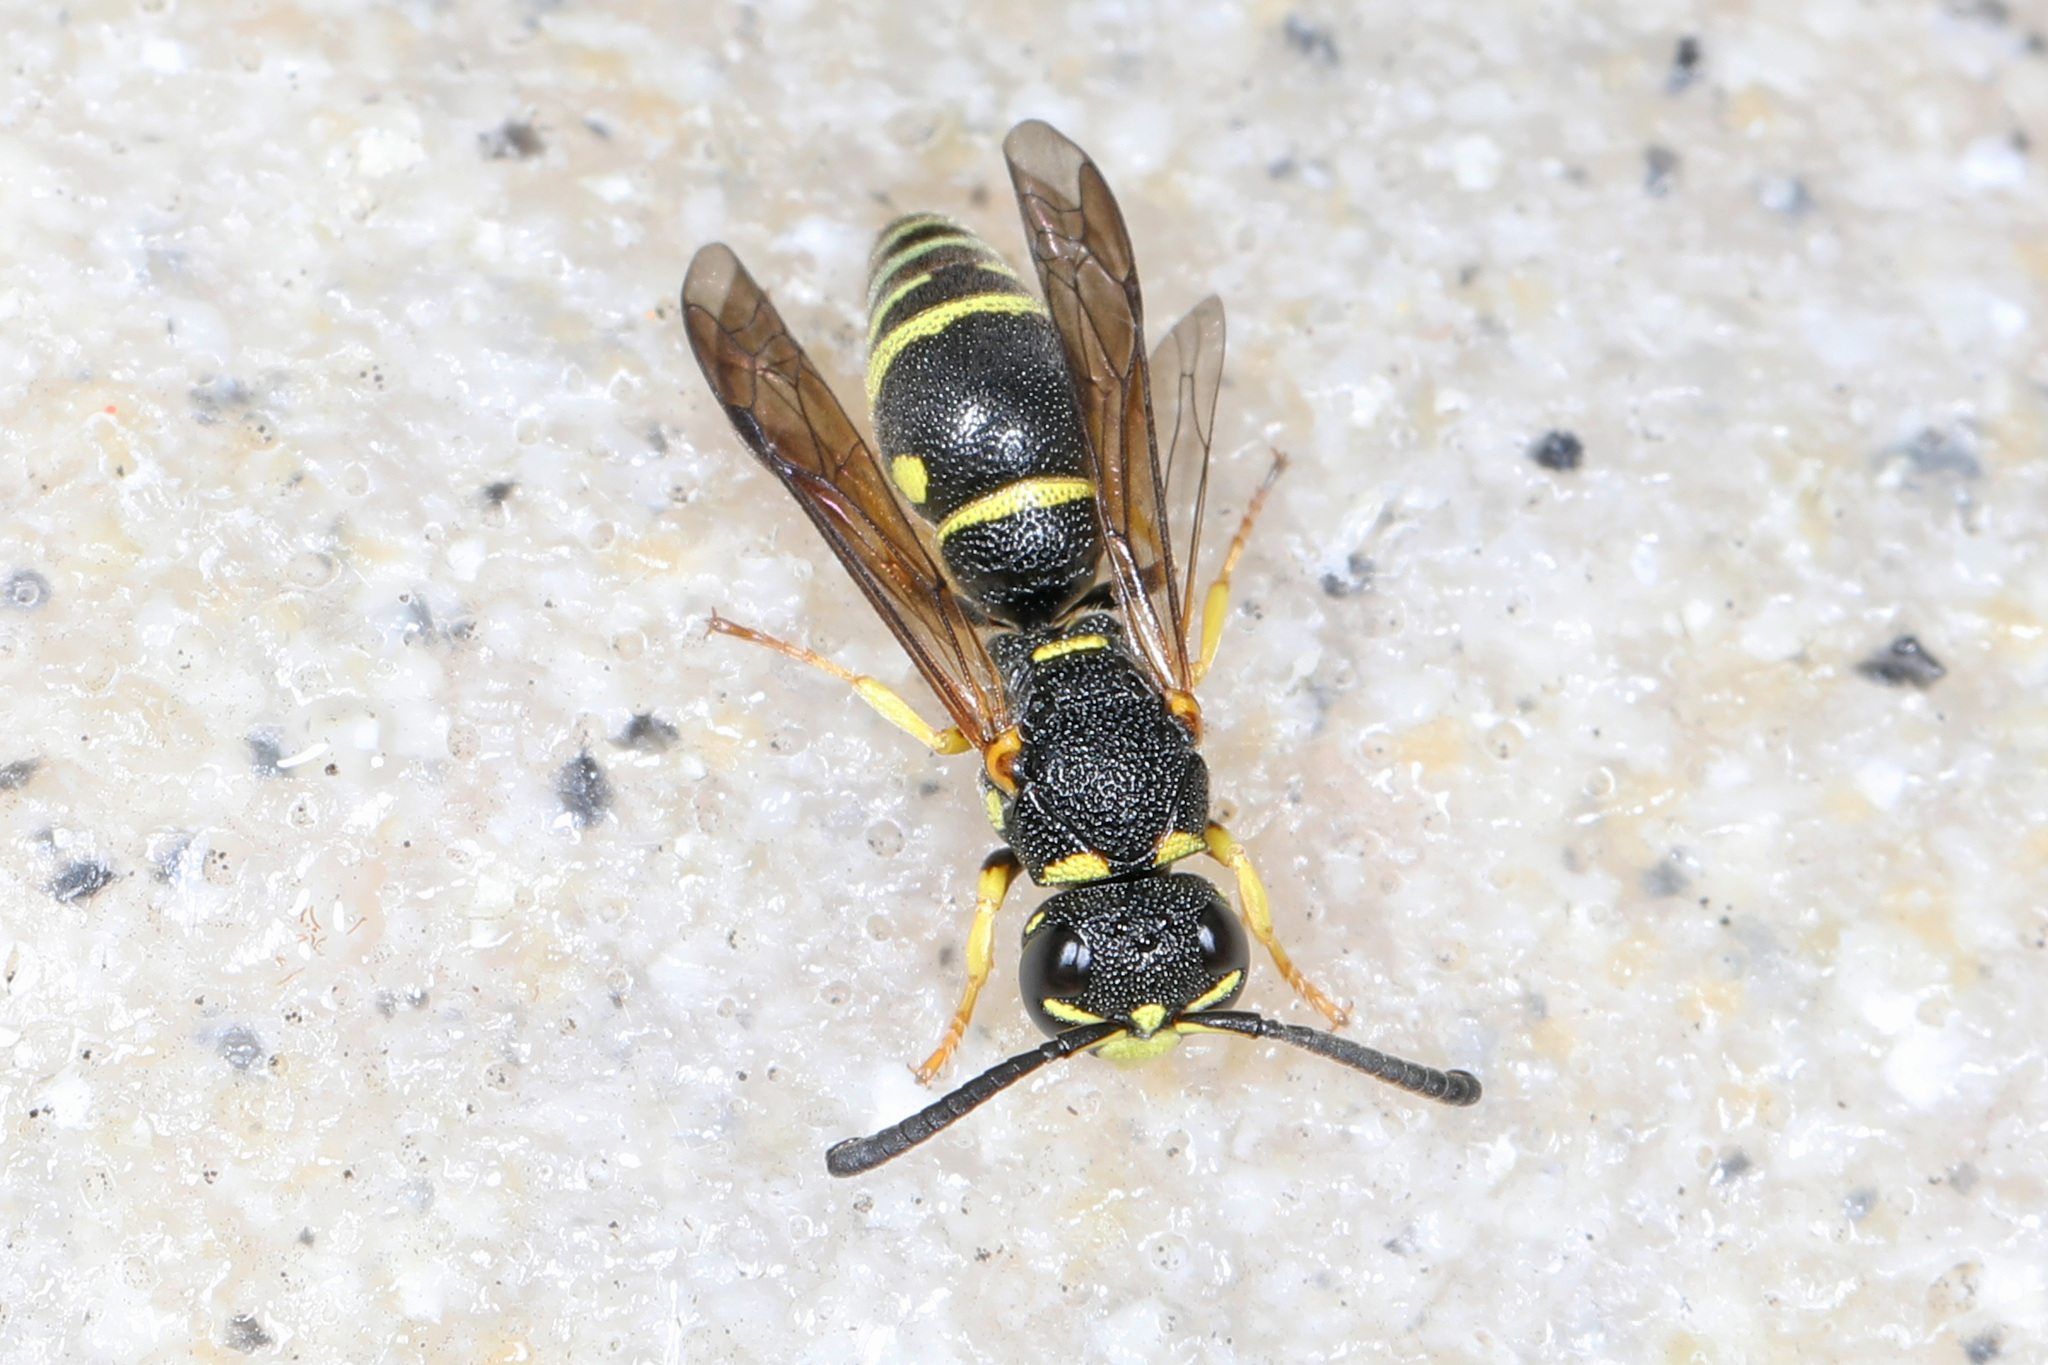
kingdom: Animalia
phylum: Arthropoda
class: Insecta
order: Hymenoptera
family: Eumenidae
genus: Rhynchalastor
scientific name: Rhynchalastor ammonia
